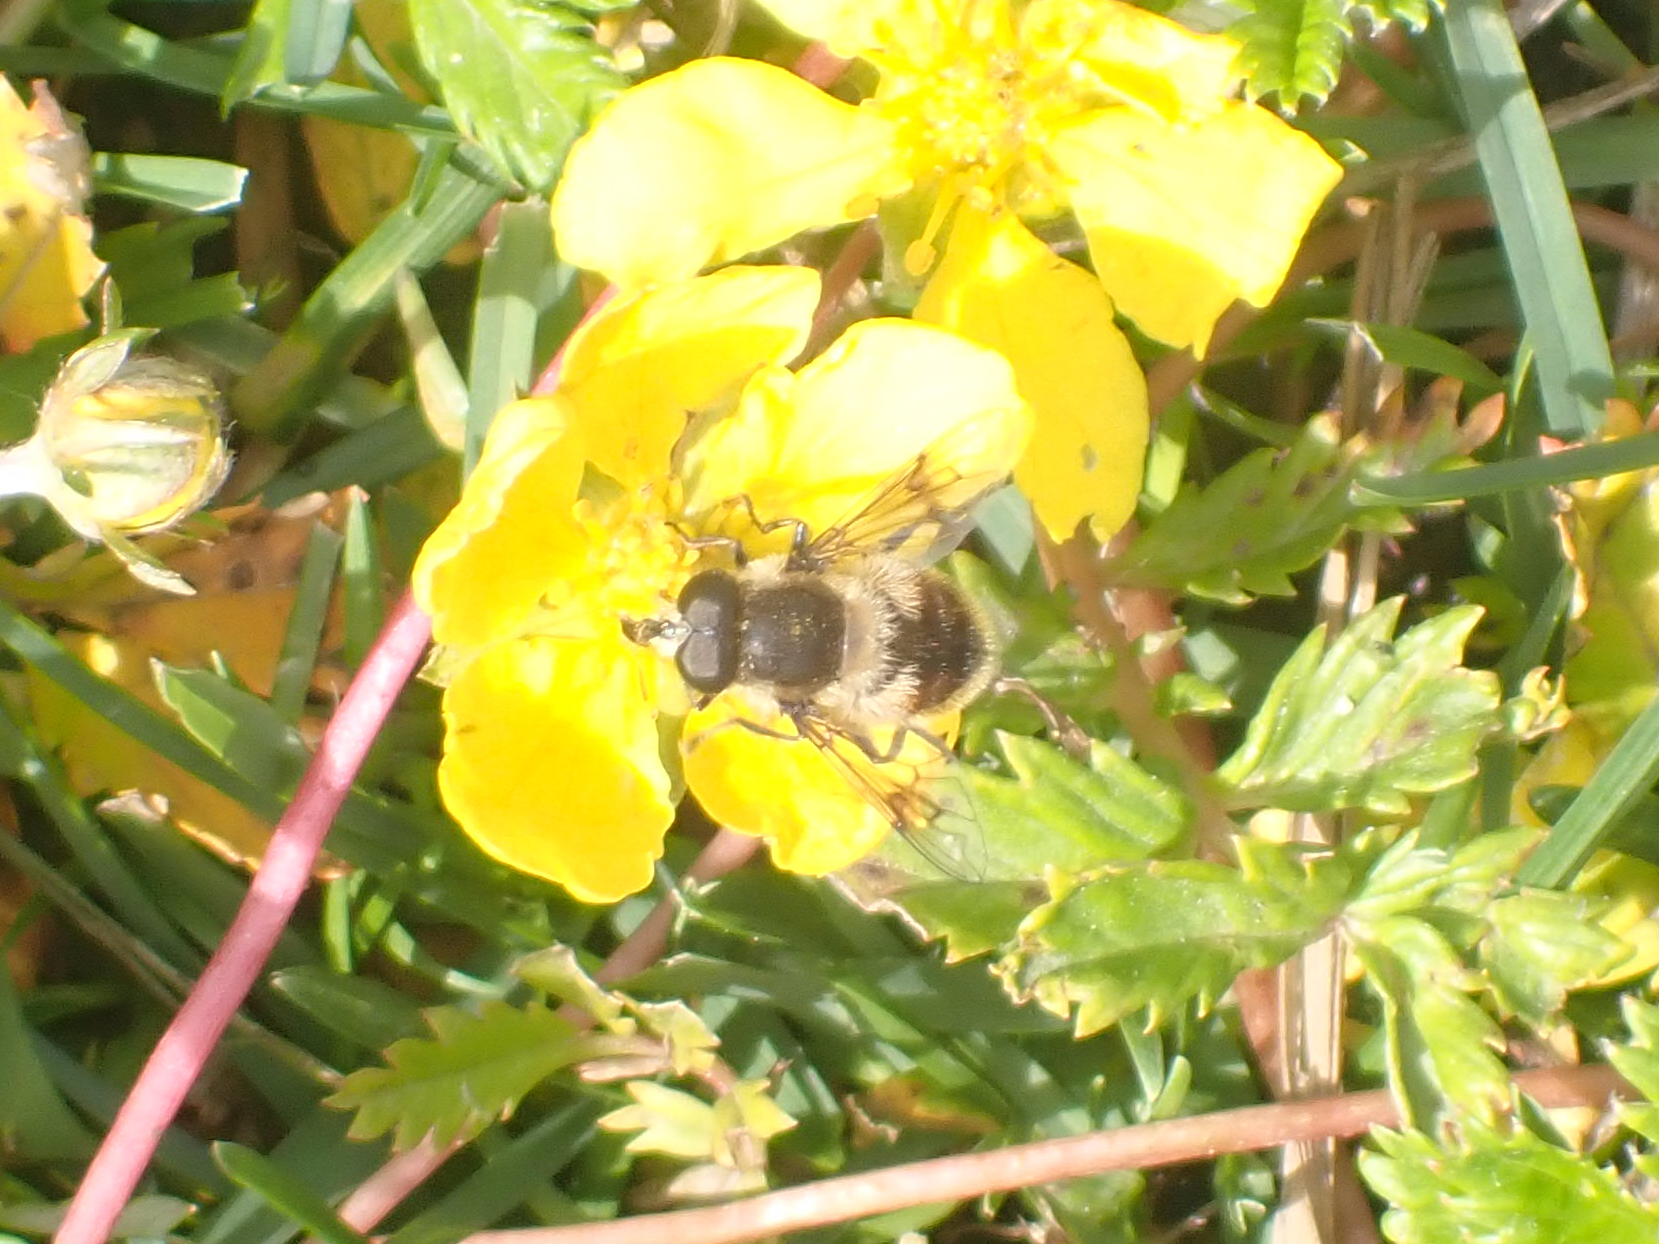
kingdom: Animalia
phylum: Arthropoda
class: Insecta
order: Diptera
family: Syrphidae
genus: Eristalis
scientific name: Eristalis anthophorina
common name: Orange-spotted drone fly
